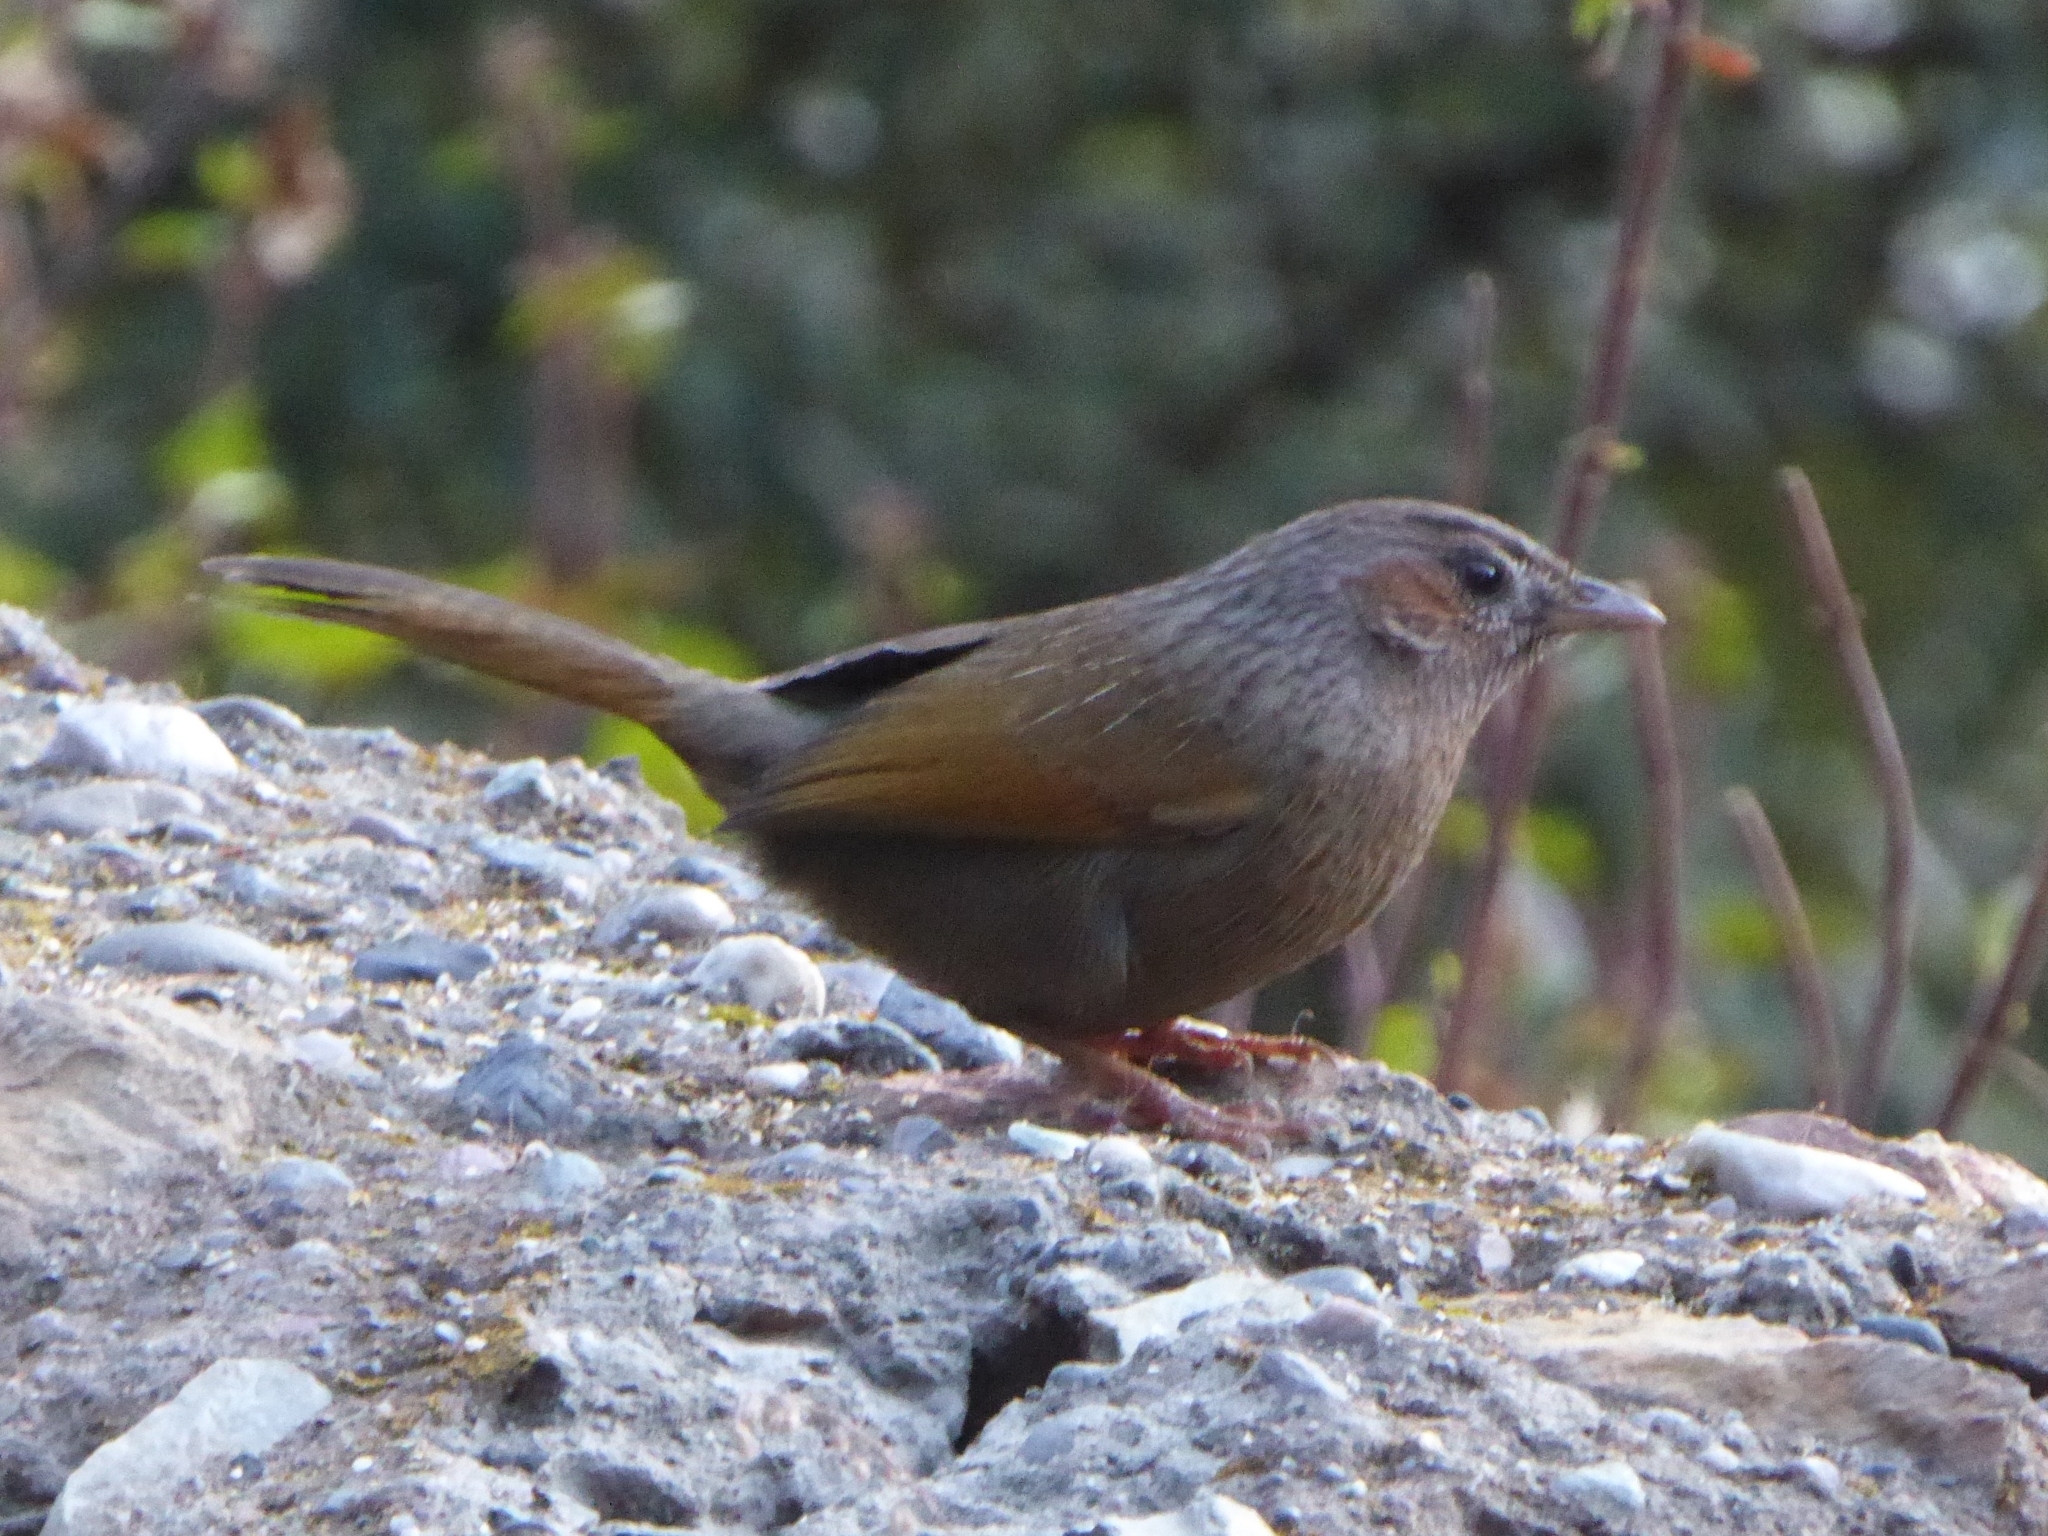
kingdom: Animalia
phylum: Chordata
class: Aves
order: Passeriformes
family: Leiothrichidae
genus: Trochalopteron
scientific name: Trochalopteron lineatum
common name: Streaked laughingthrush
